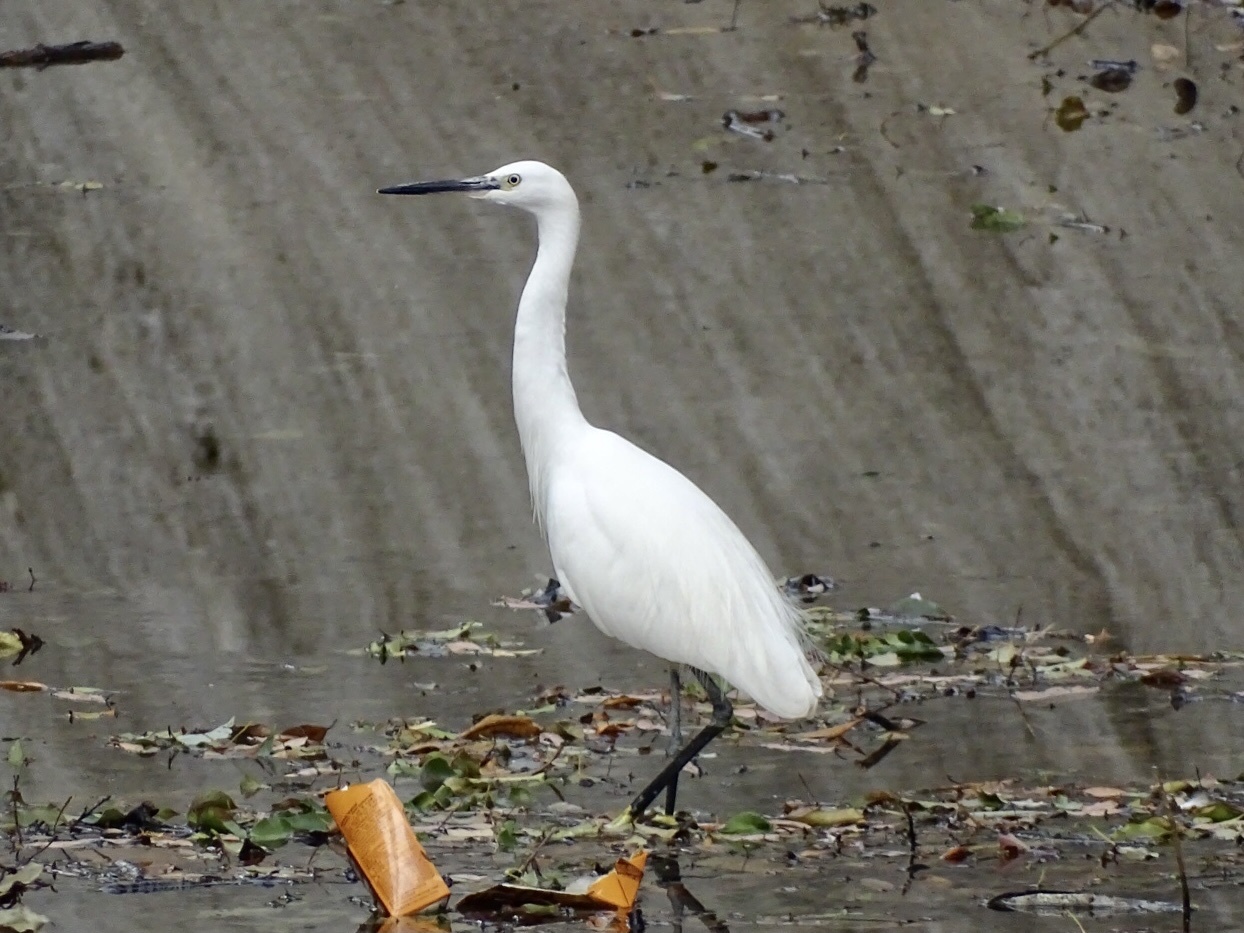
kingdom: Animalia
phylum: Chordata
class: Aves
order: Pelecaniformes
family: Ardeidae
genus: Egretta
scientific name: Egretta garzetta
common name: Little egret
